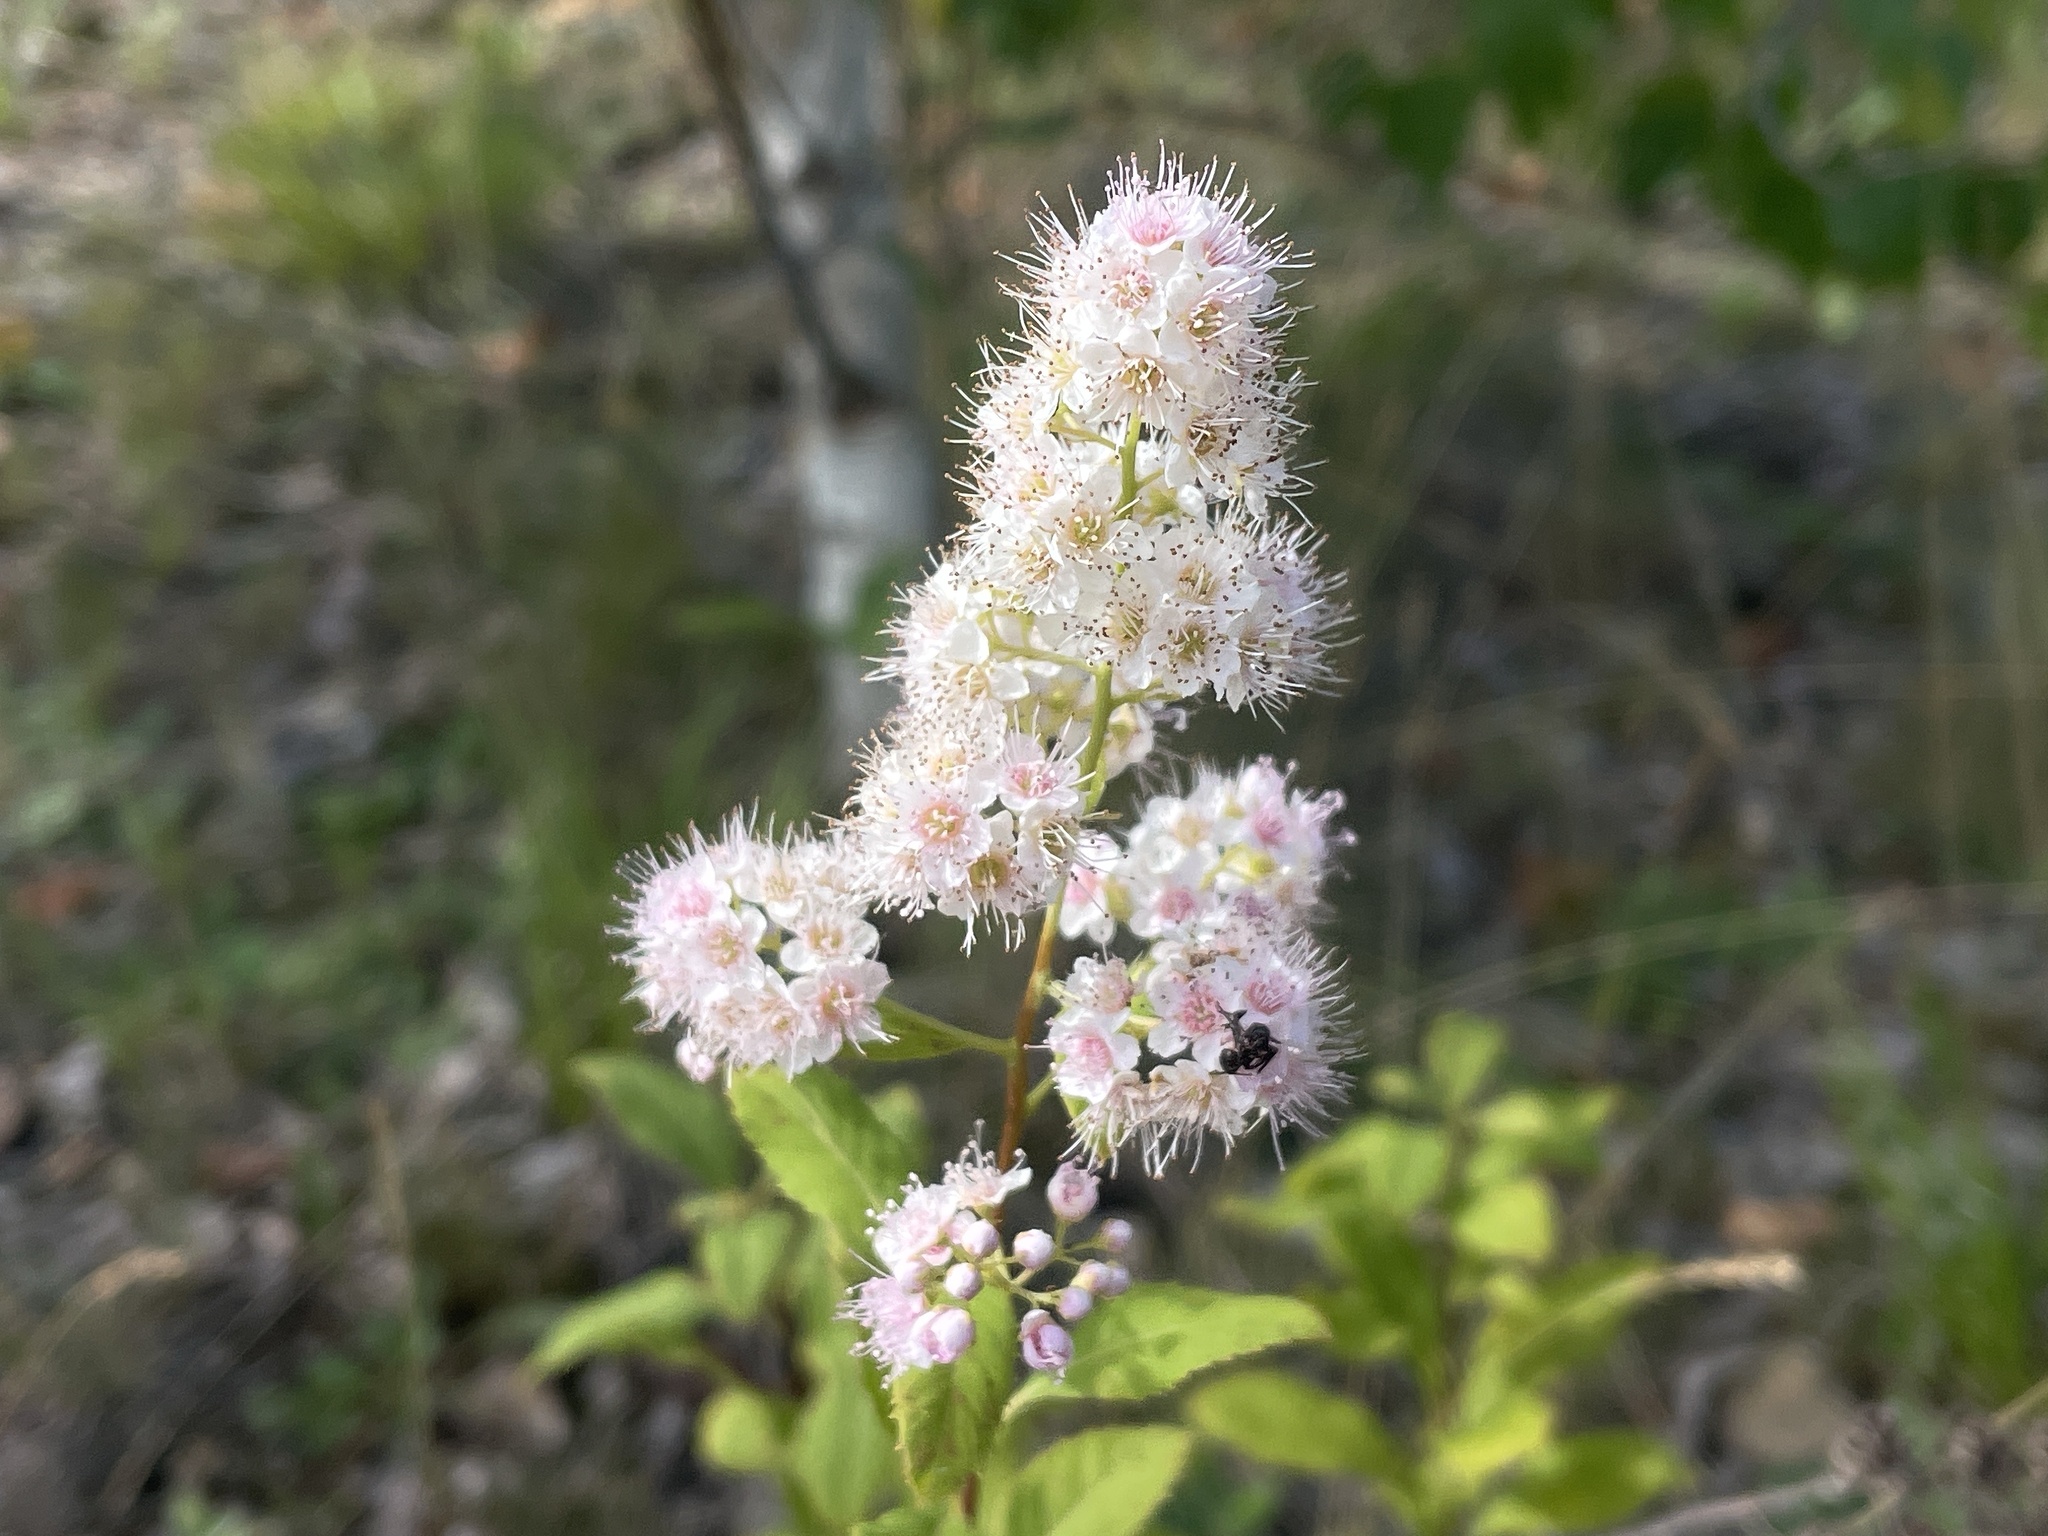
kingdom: Plantae
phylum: Tracheophyta
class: Magnoliopsida
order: Rosales
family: Rosaceae
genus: Spiraea
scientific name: Spiraea alba
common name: Pale bridewort
